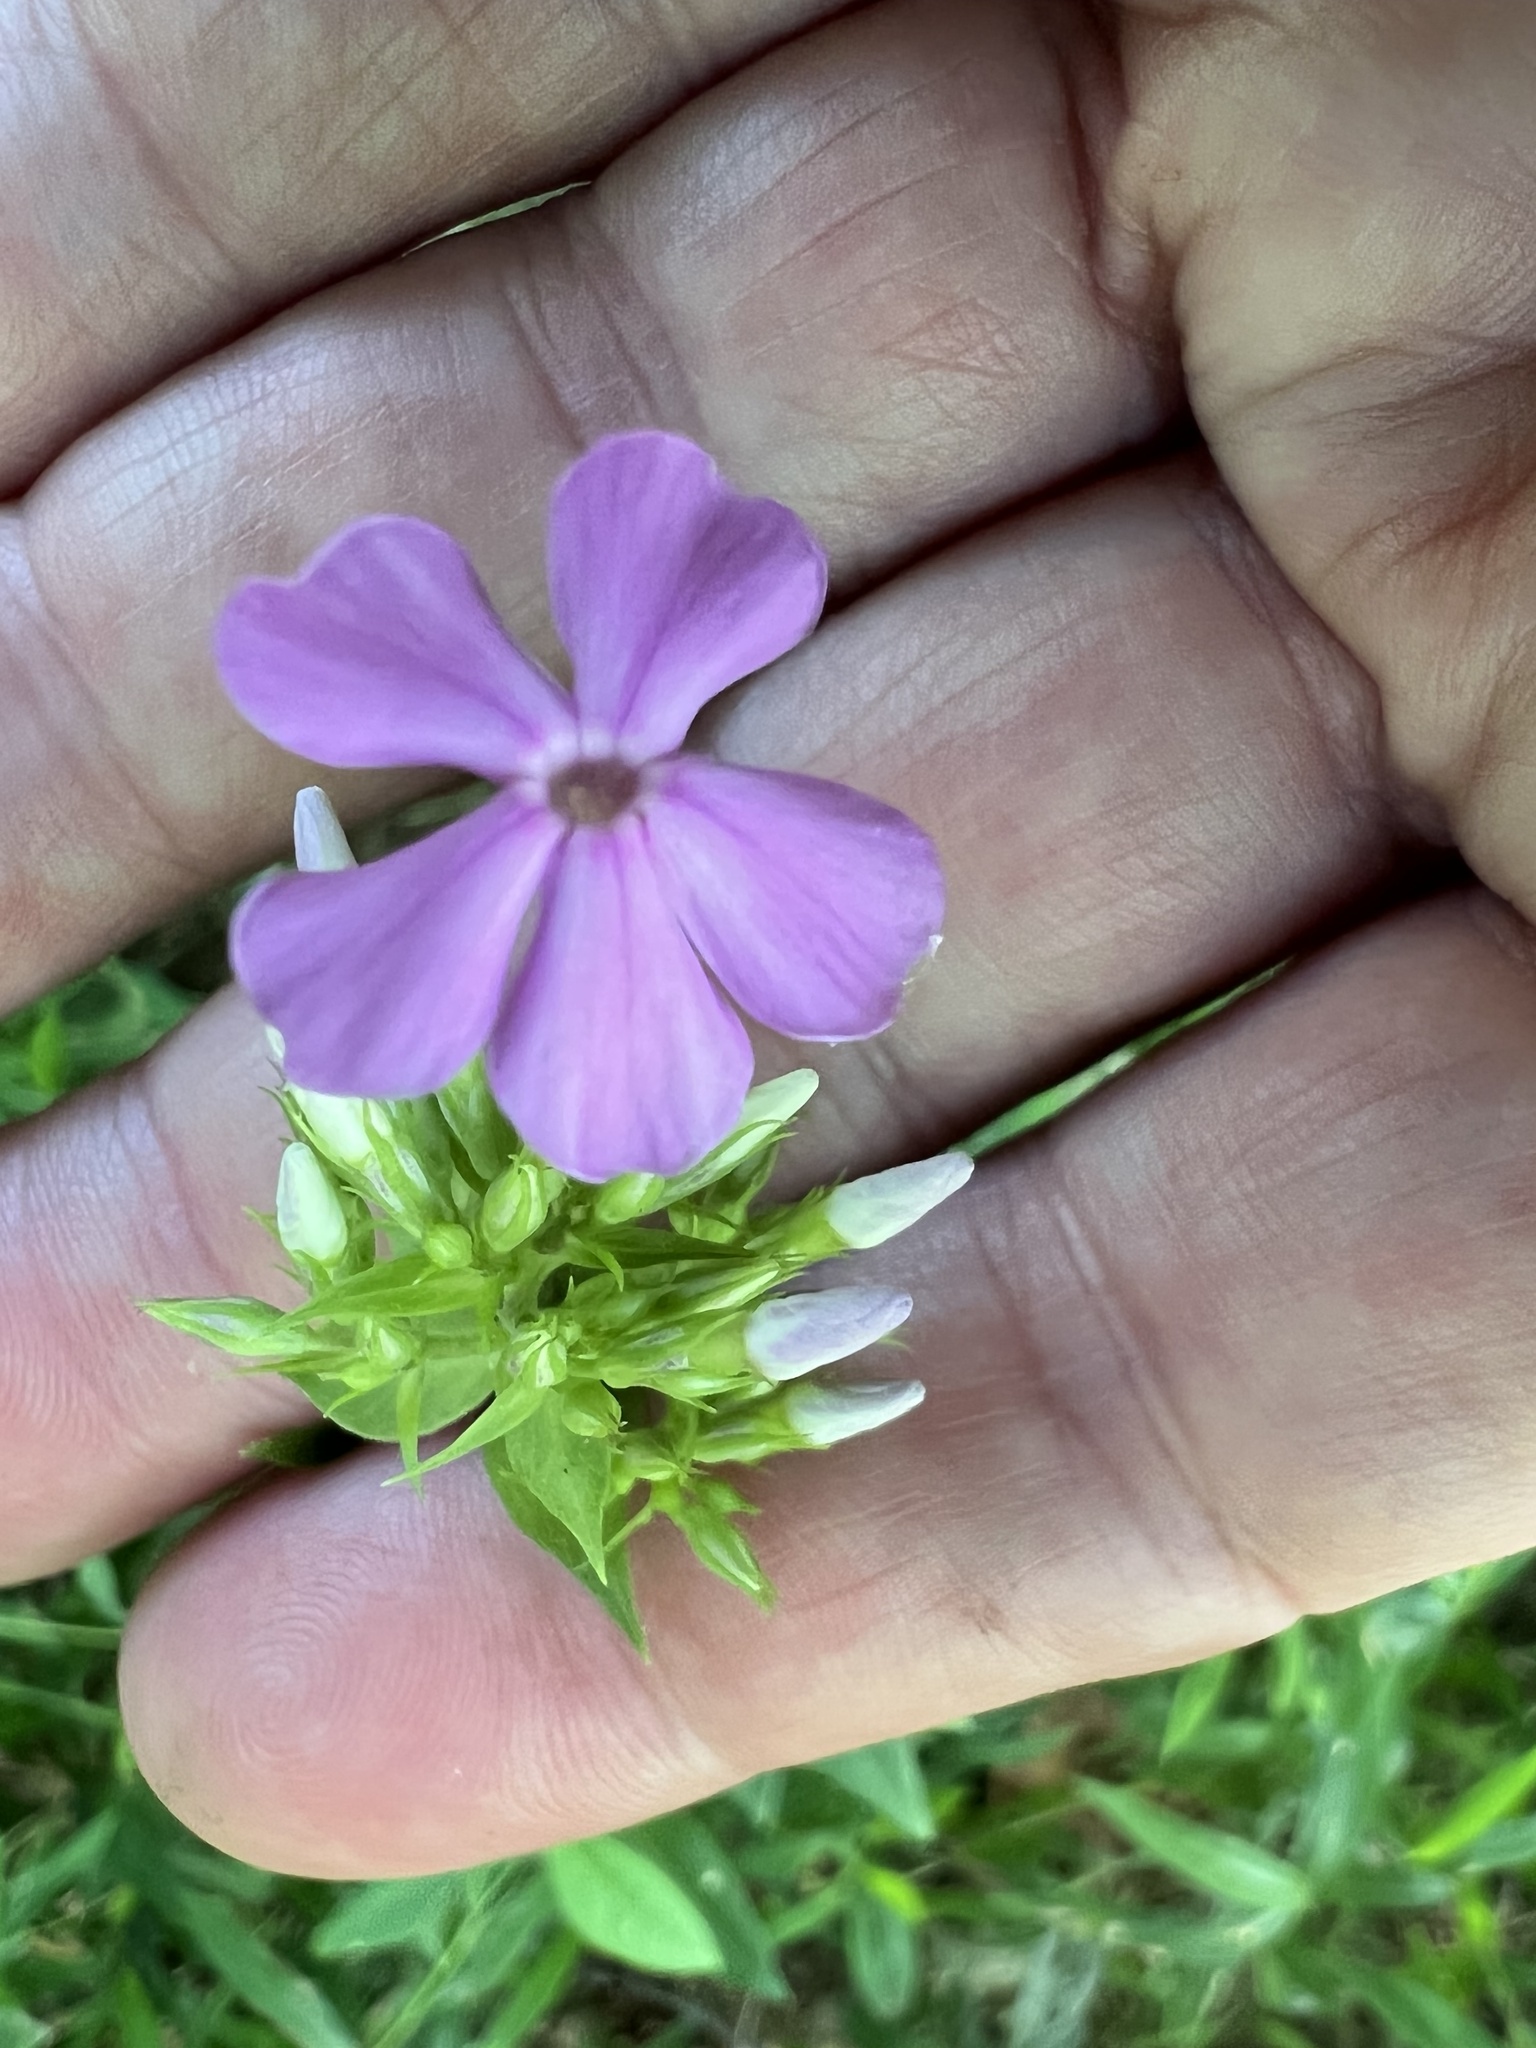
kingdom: Plantae
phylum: Tracheophyta
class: Magnoliopsida
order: Ericales
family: Polemoniaceae
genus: Phlox
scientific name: Phlox paniculata
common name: Fall phlox
